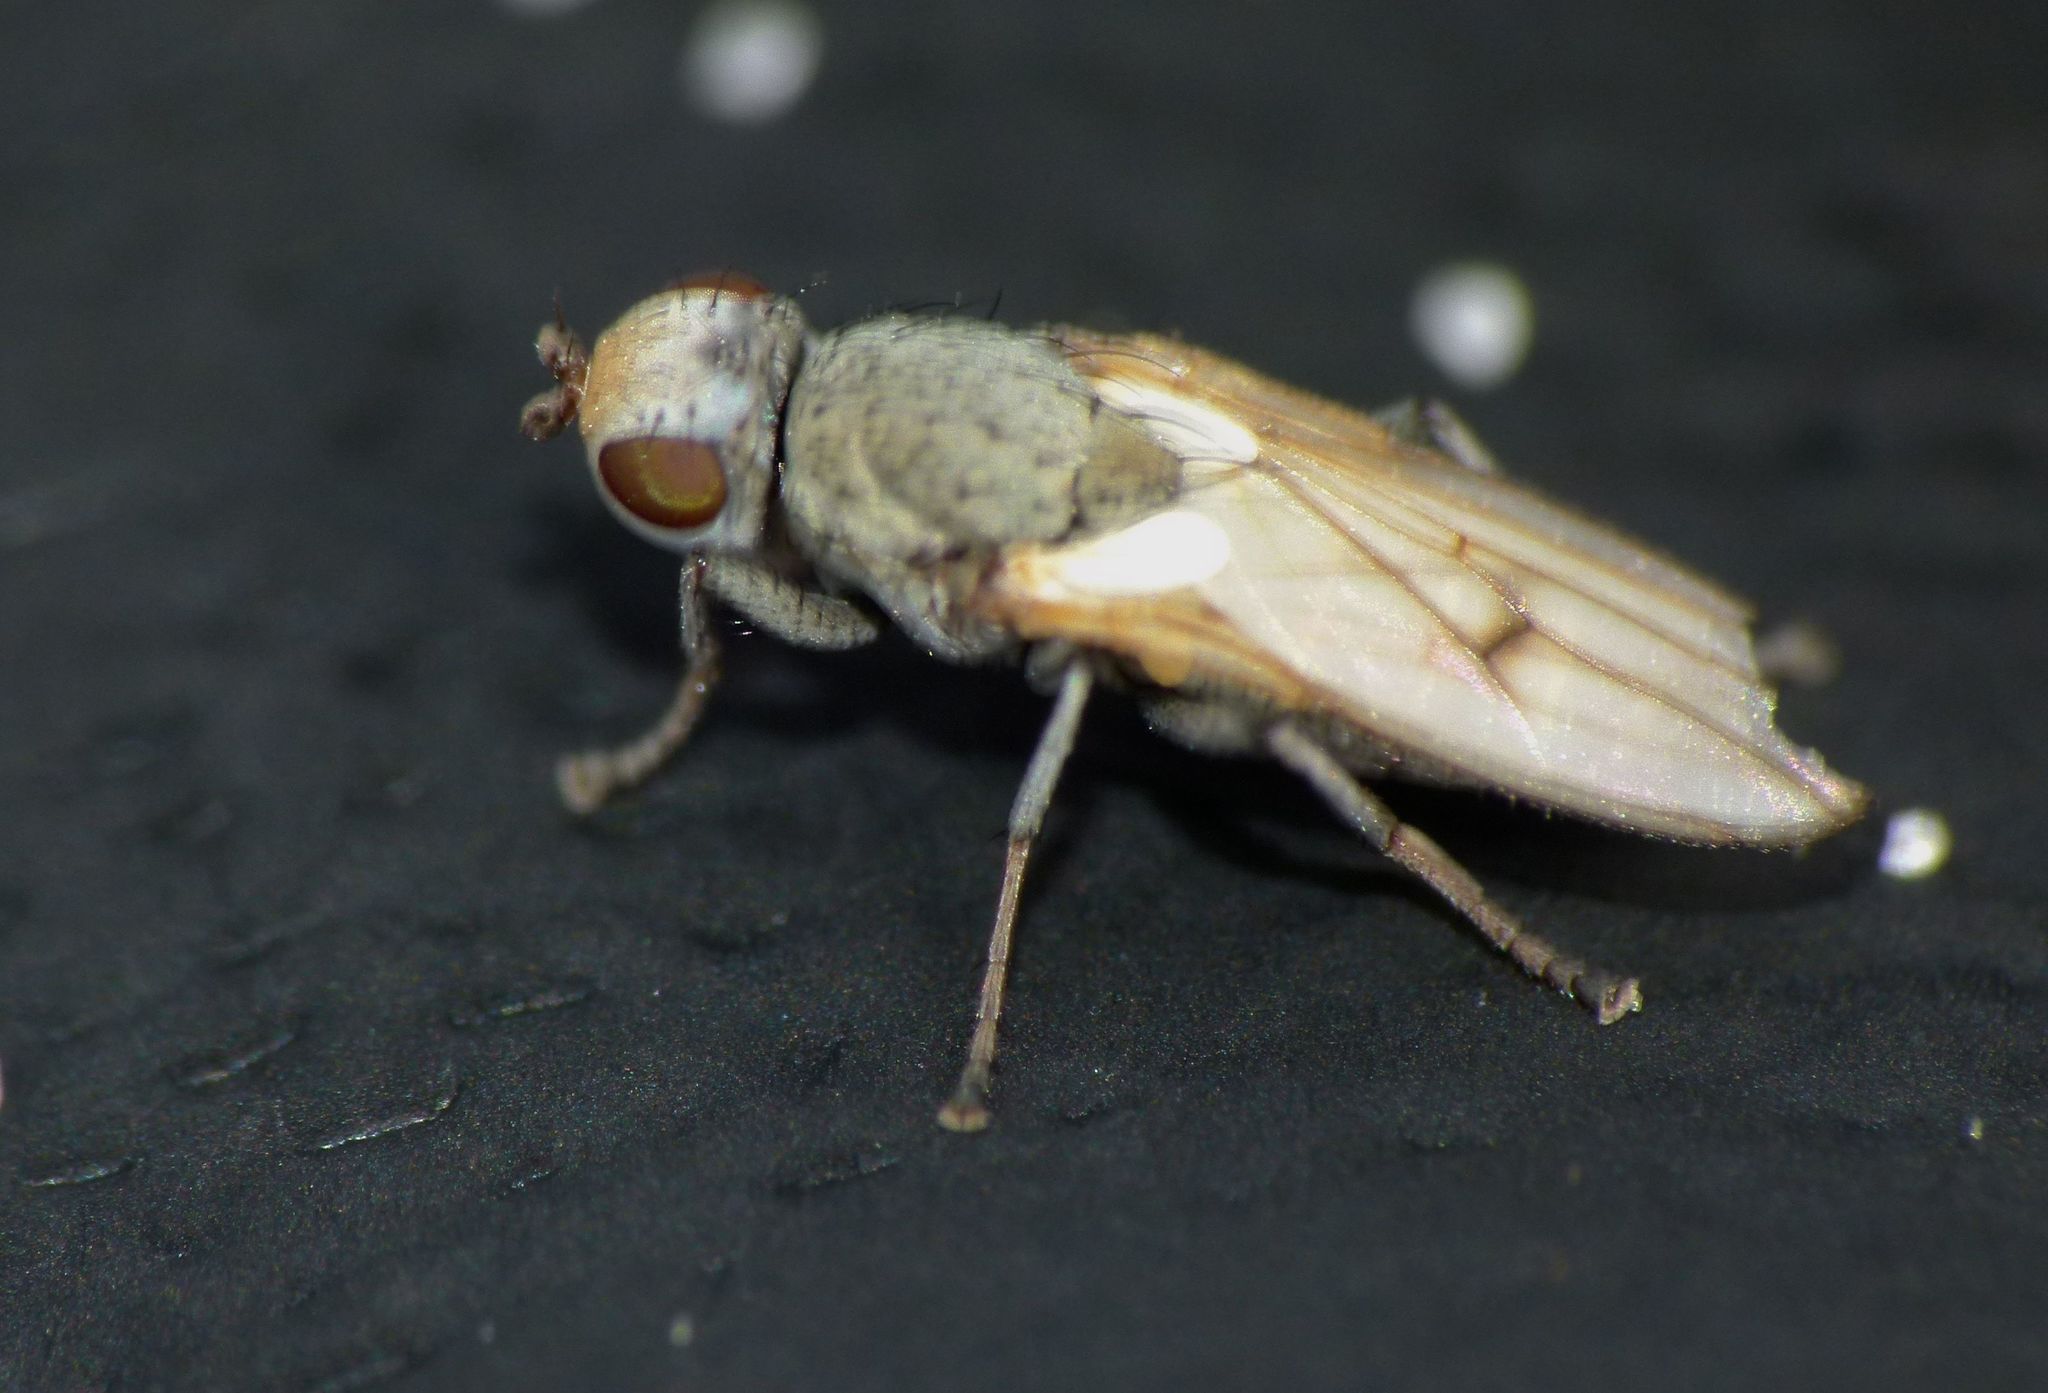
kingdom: Animalia
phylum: Arthropoda
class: Insecta
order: Diptera
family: Canacidae
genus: Tethinosoma
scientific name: Tethinosoma fulvifrons
